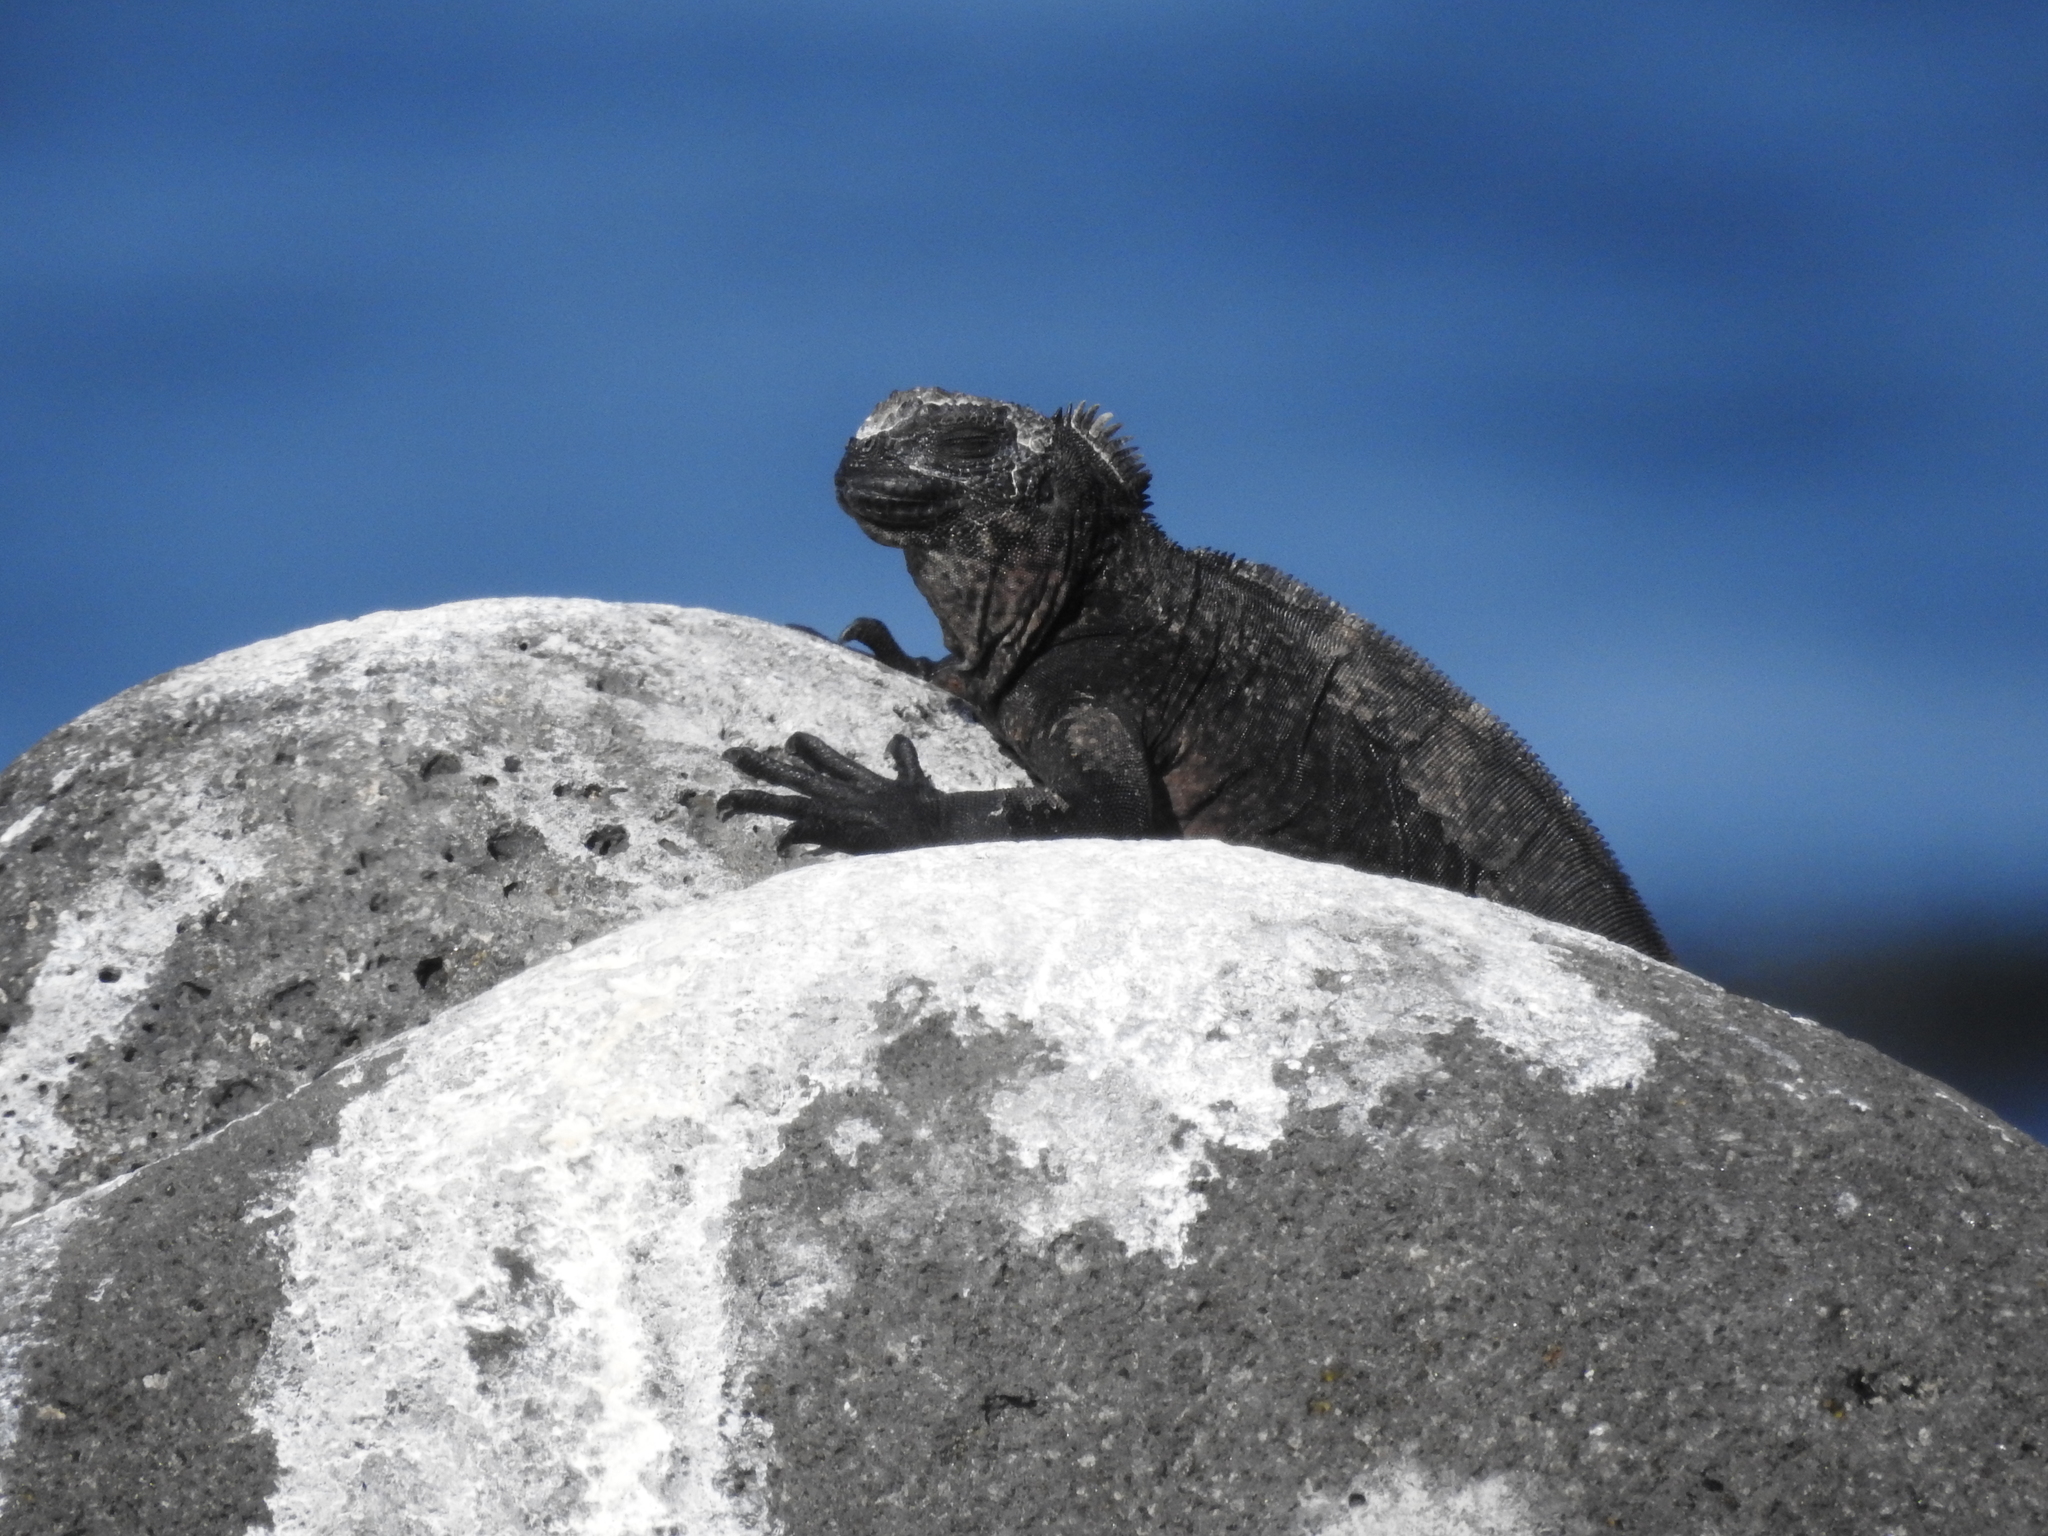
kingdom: Animalia
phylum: Chordata
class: Squamata
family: Iguanidae
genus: Amblyrhynchus
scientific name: Amblyrhynchus cristatus
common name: Marine iguana
